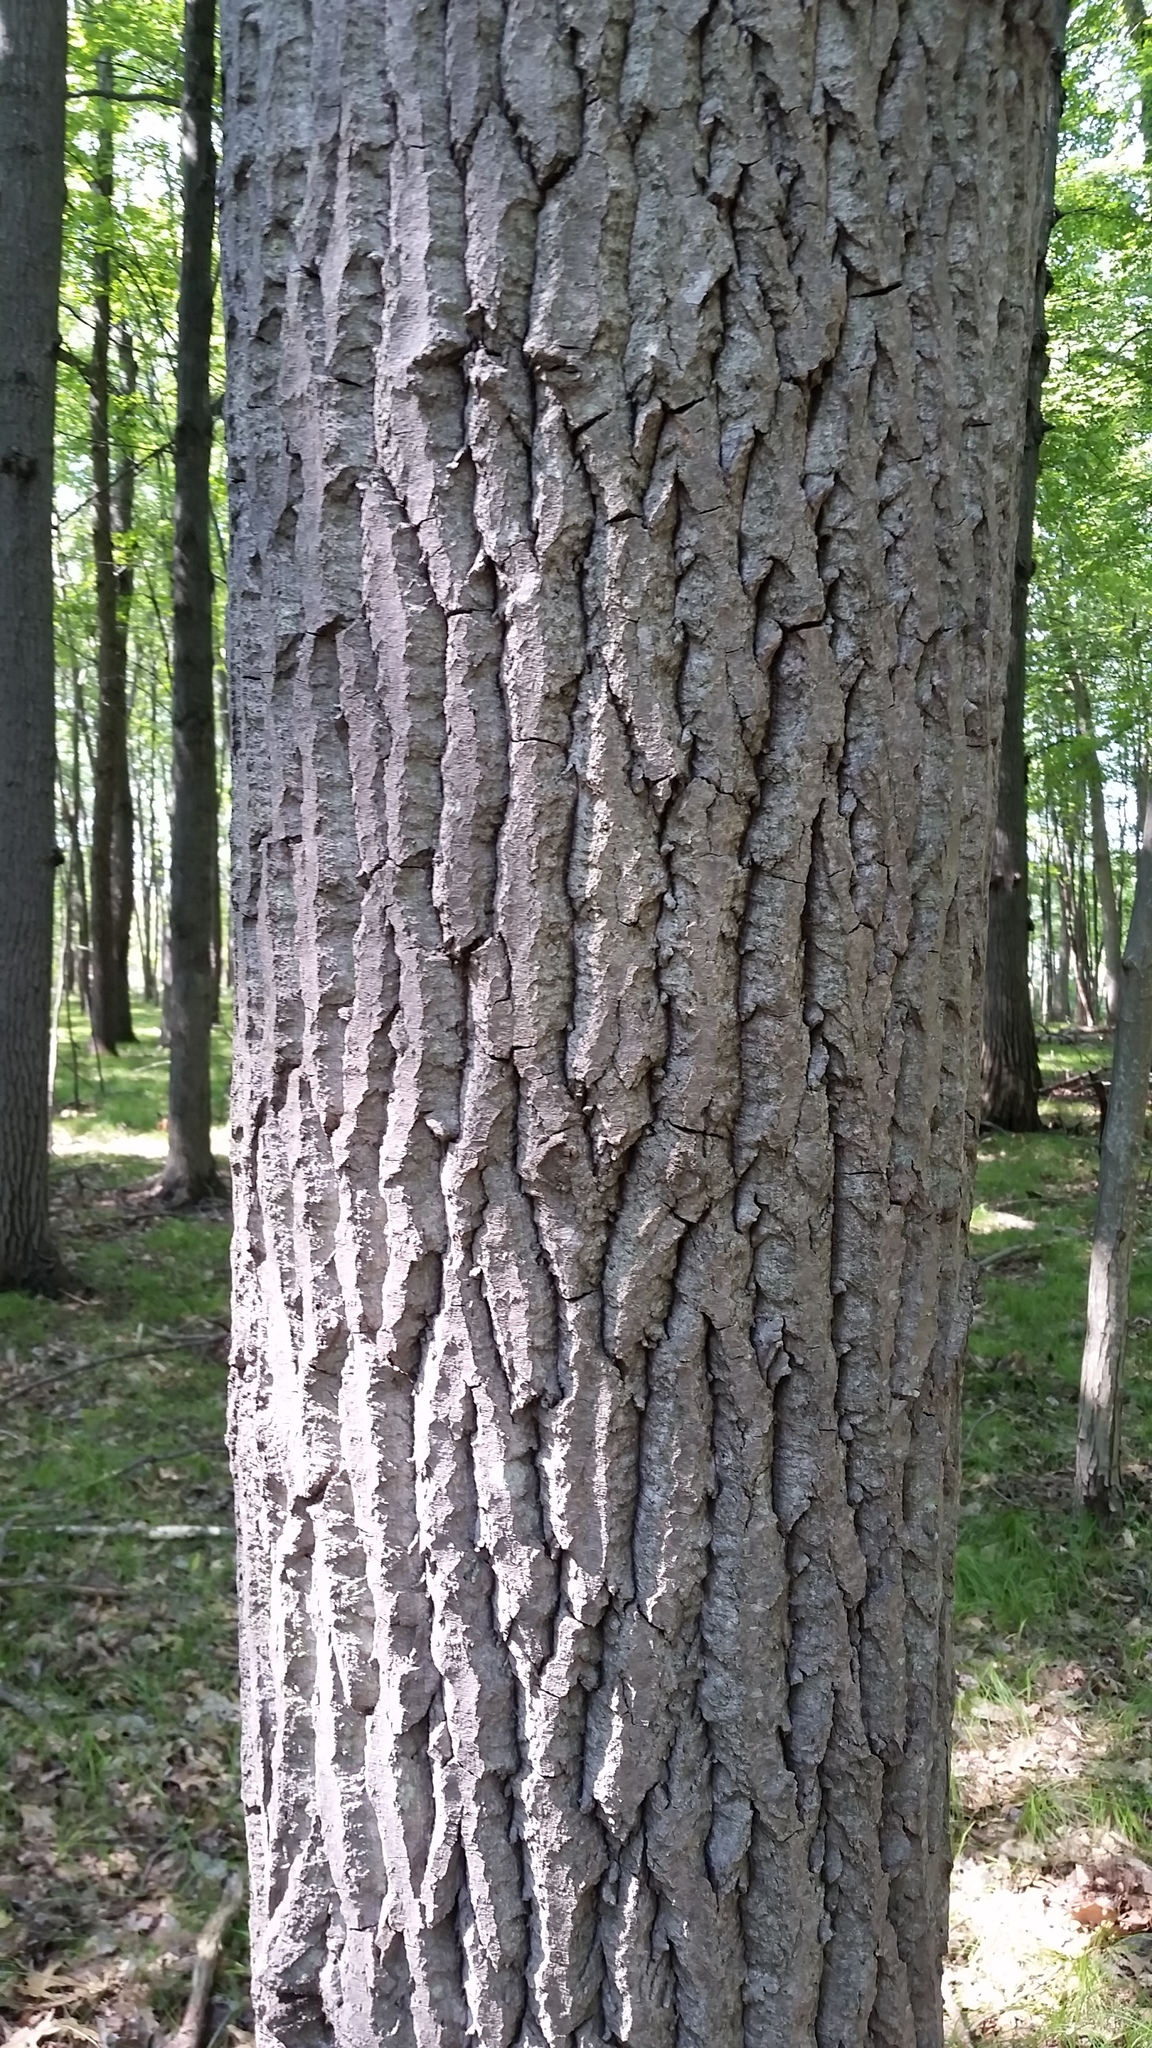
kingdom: Plantae
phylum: Tracheophyta
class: Magnoliopsida
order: Malpighiales
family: Salicaceae
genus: Populus
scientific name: Populus grandidentata
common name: Bigtooth aspen
